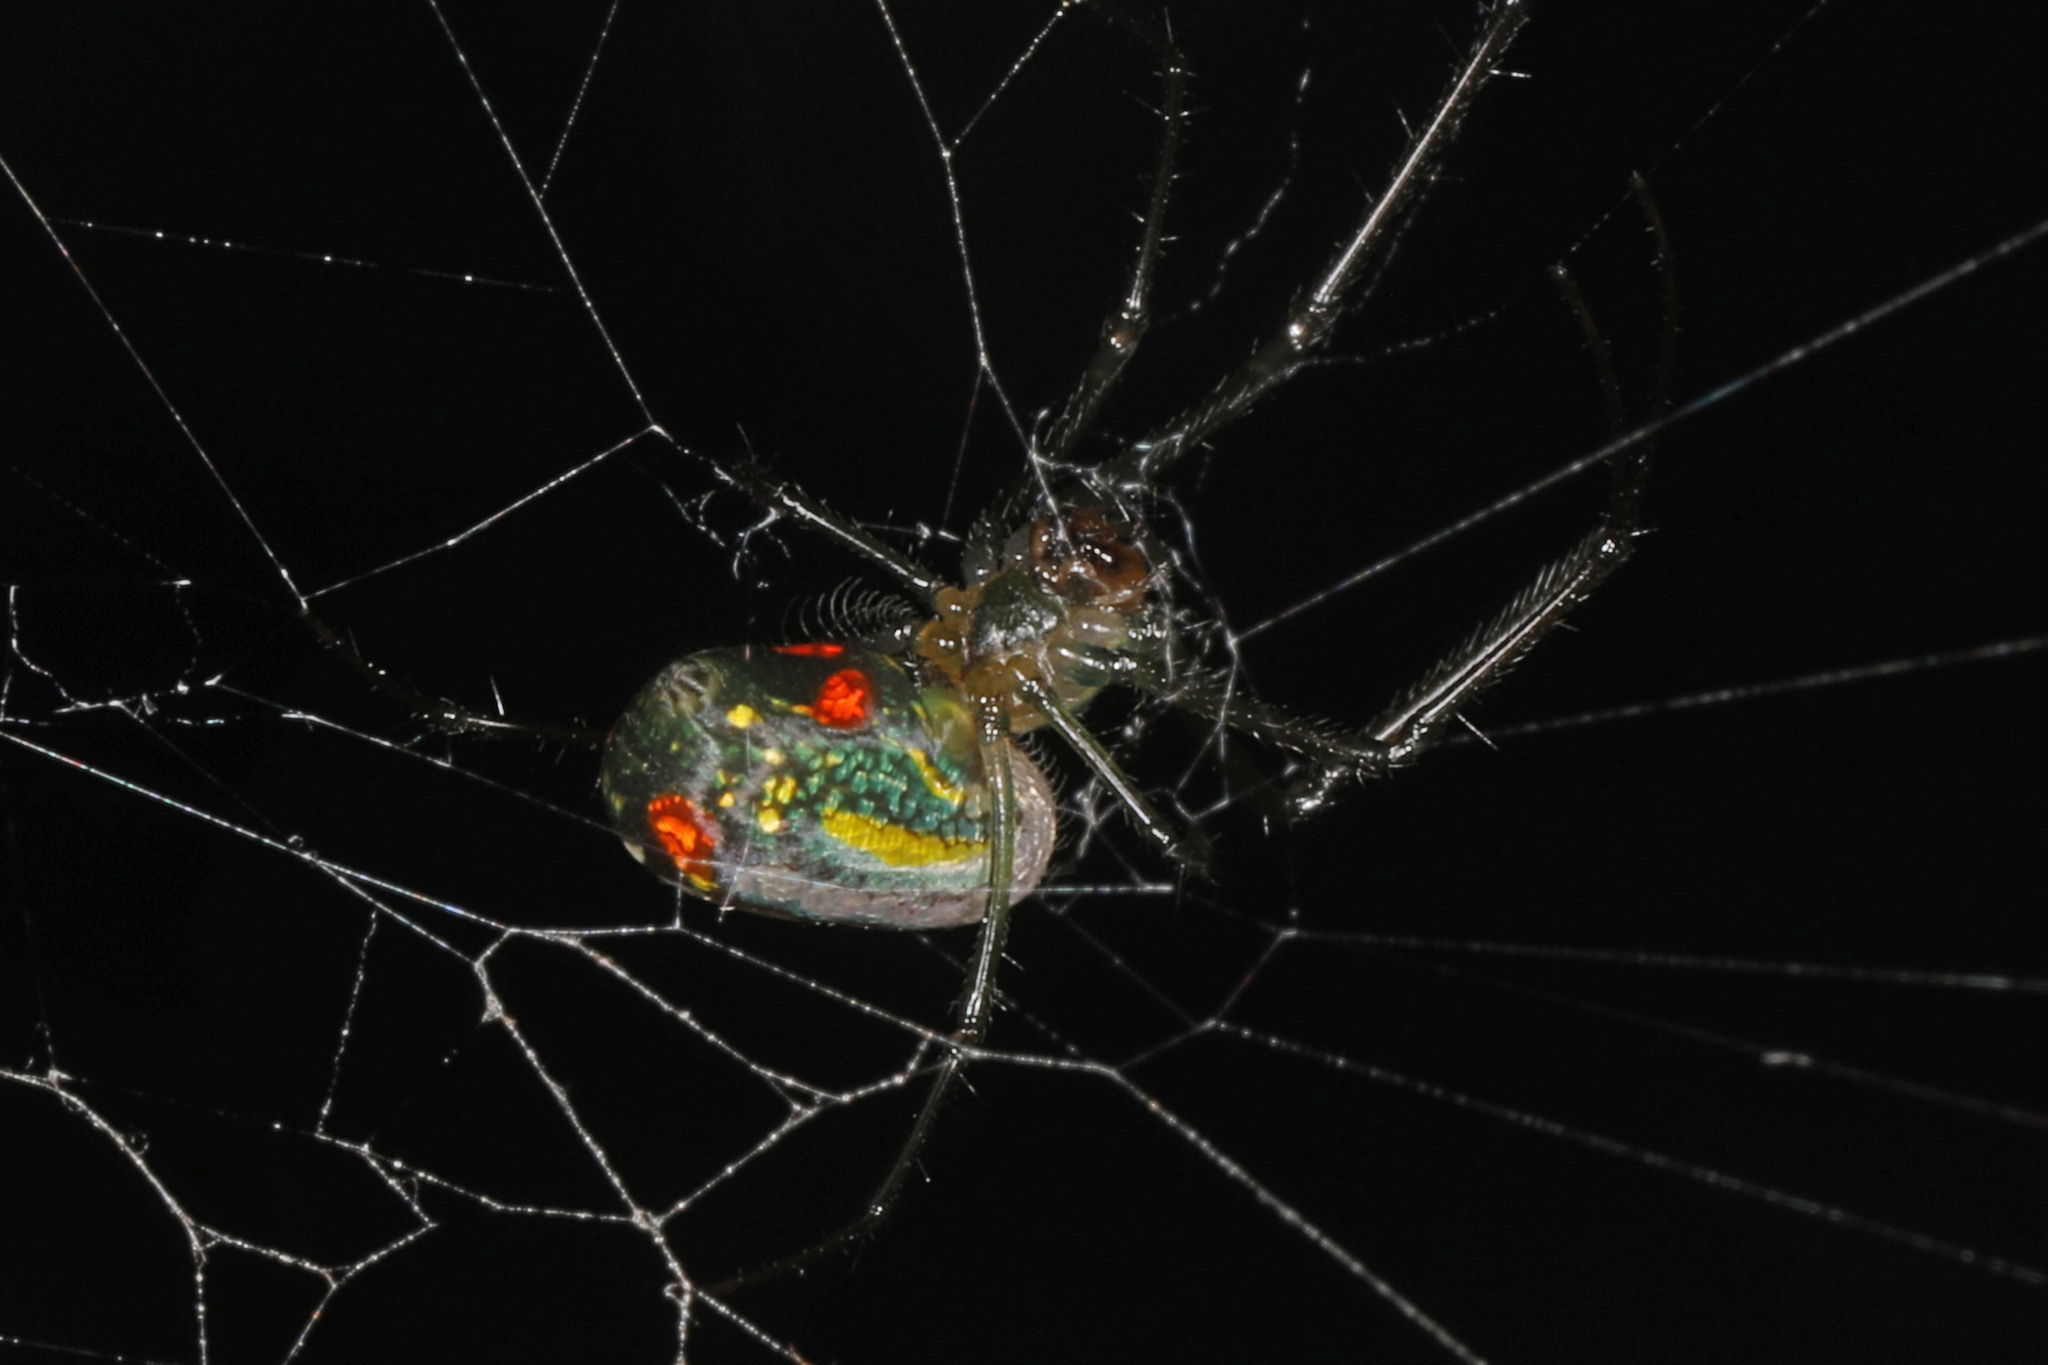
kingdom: Animalia
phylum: Arthropoda
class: Arachnida
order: Araneae
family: Tetragnathidae
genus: Leucauge
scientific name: Leucauge argyrobapta
